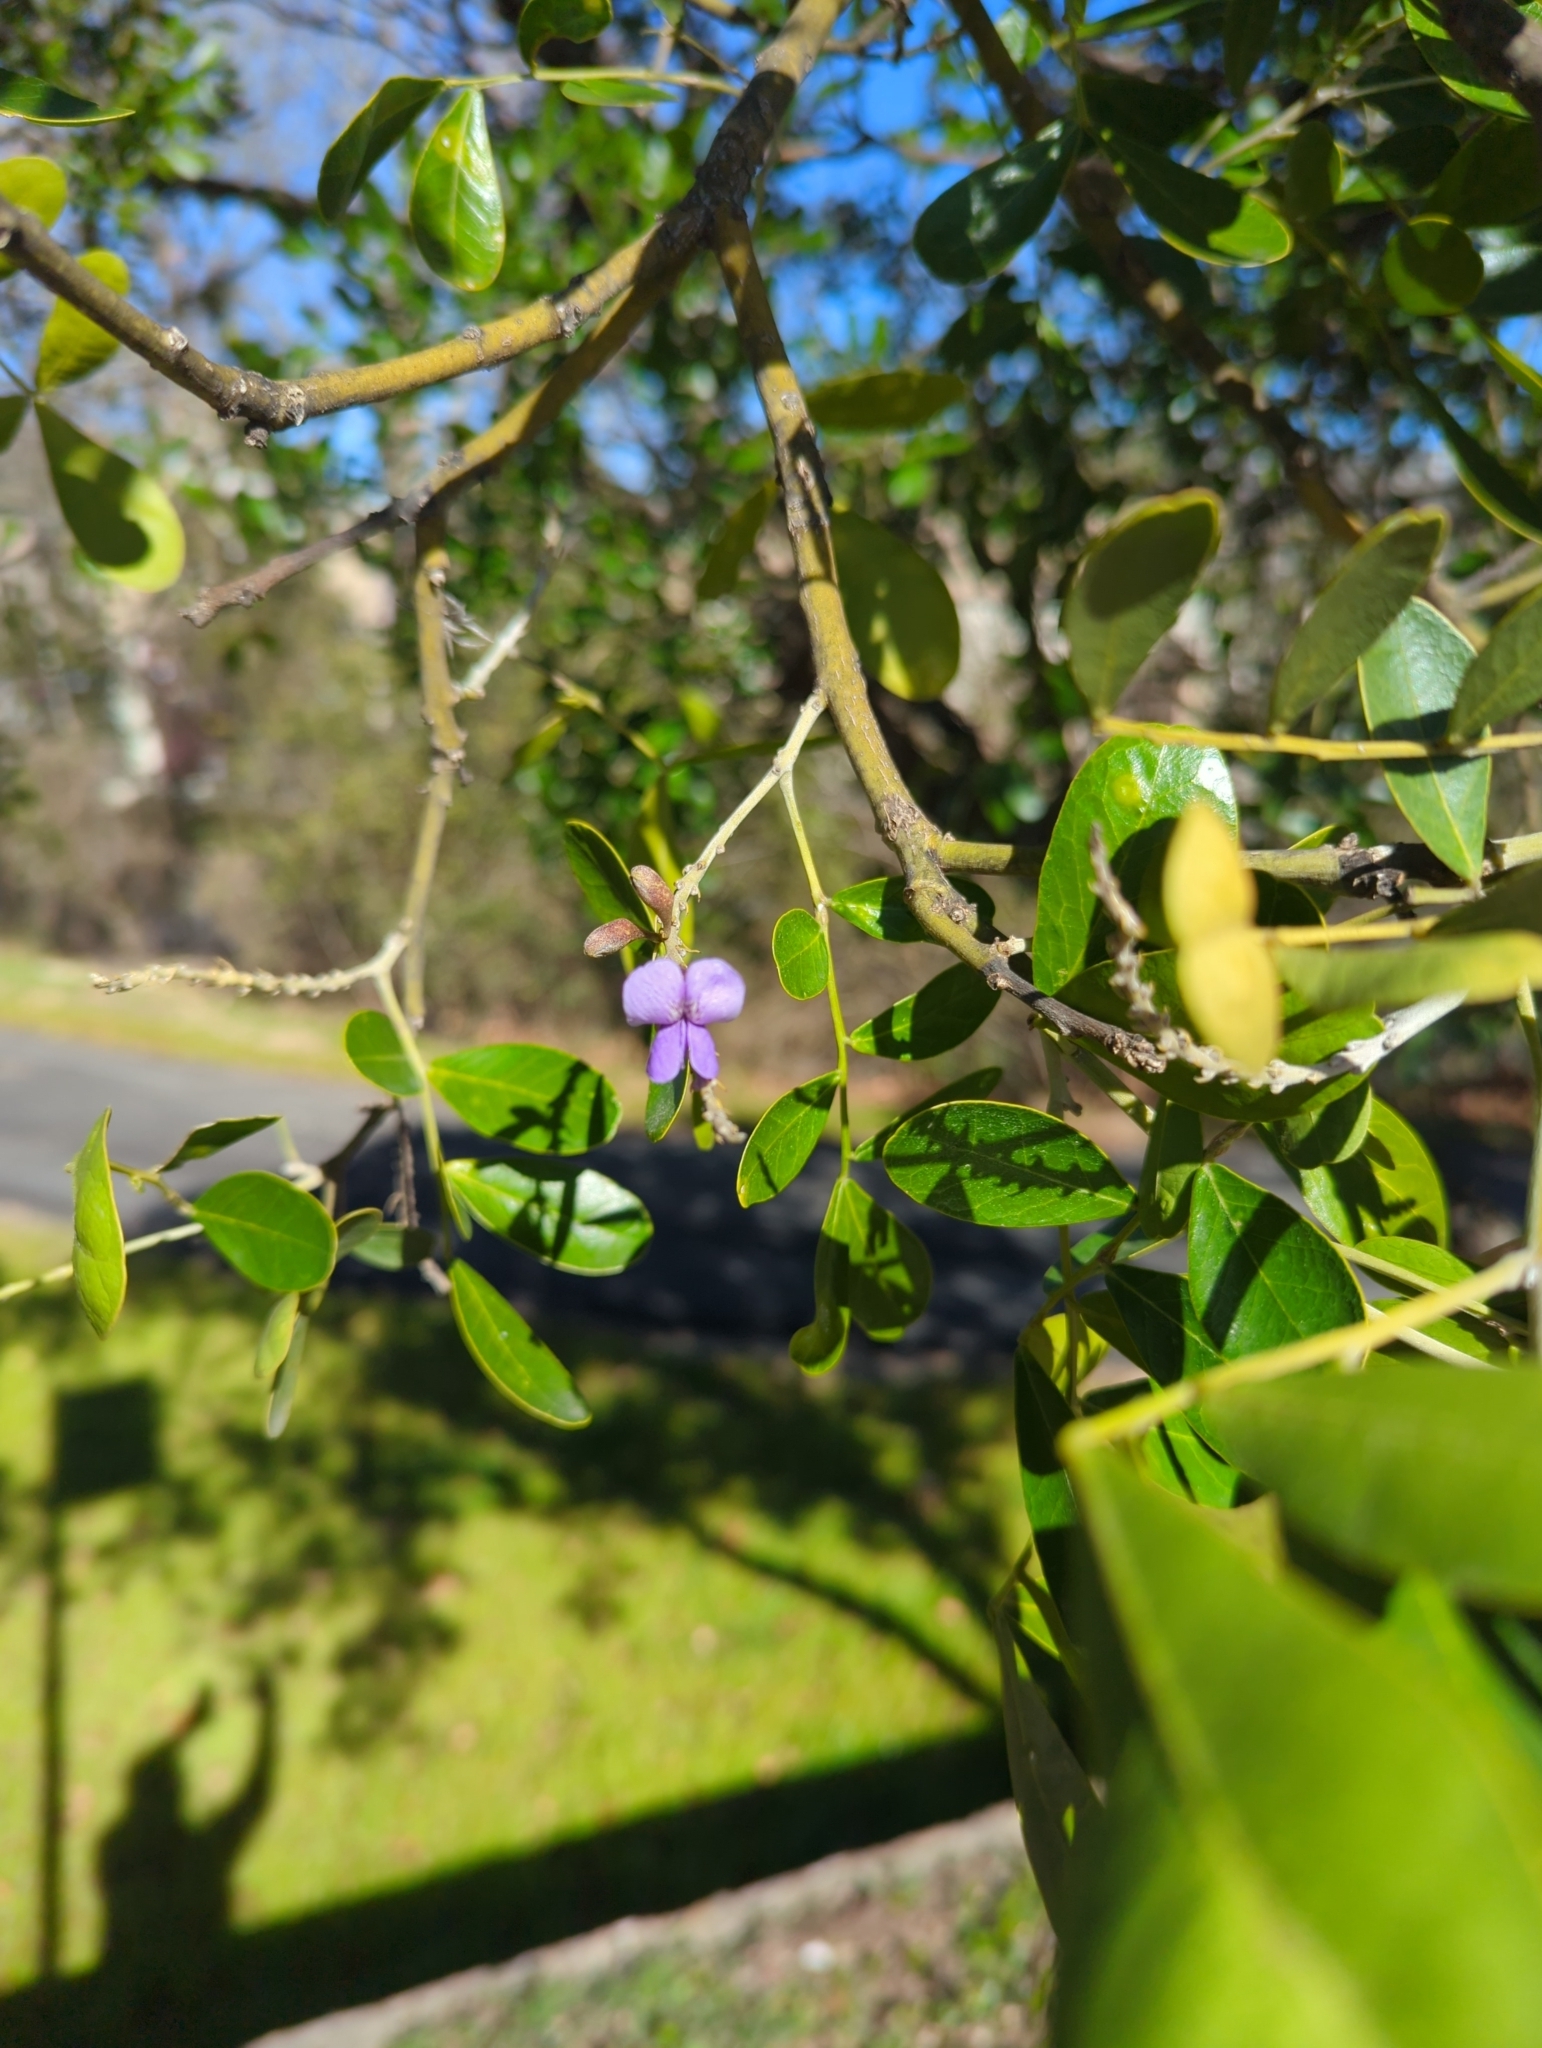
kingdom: Plantae
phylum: Tracheophyta
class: Magnoliopsida
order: Fabales
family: Fabaceae
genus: Dermatophyllum
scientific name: Dermatophyllum secundiflorum
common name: Texas-mountain-laurel
